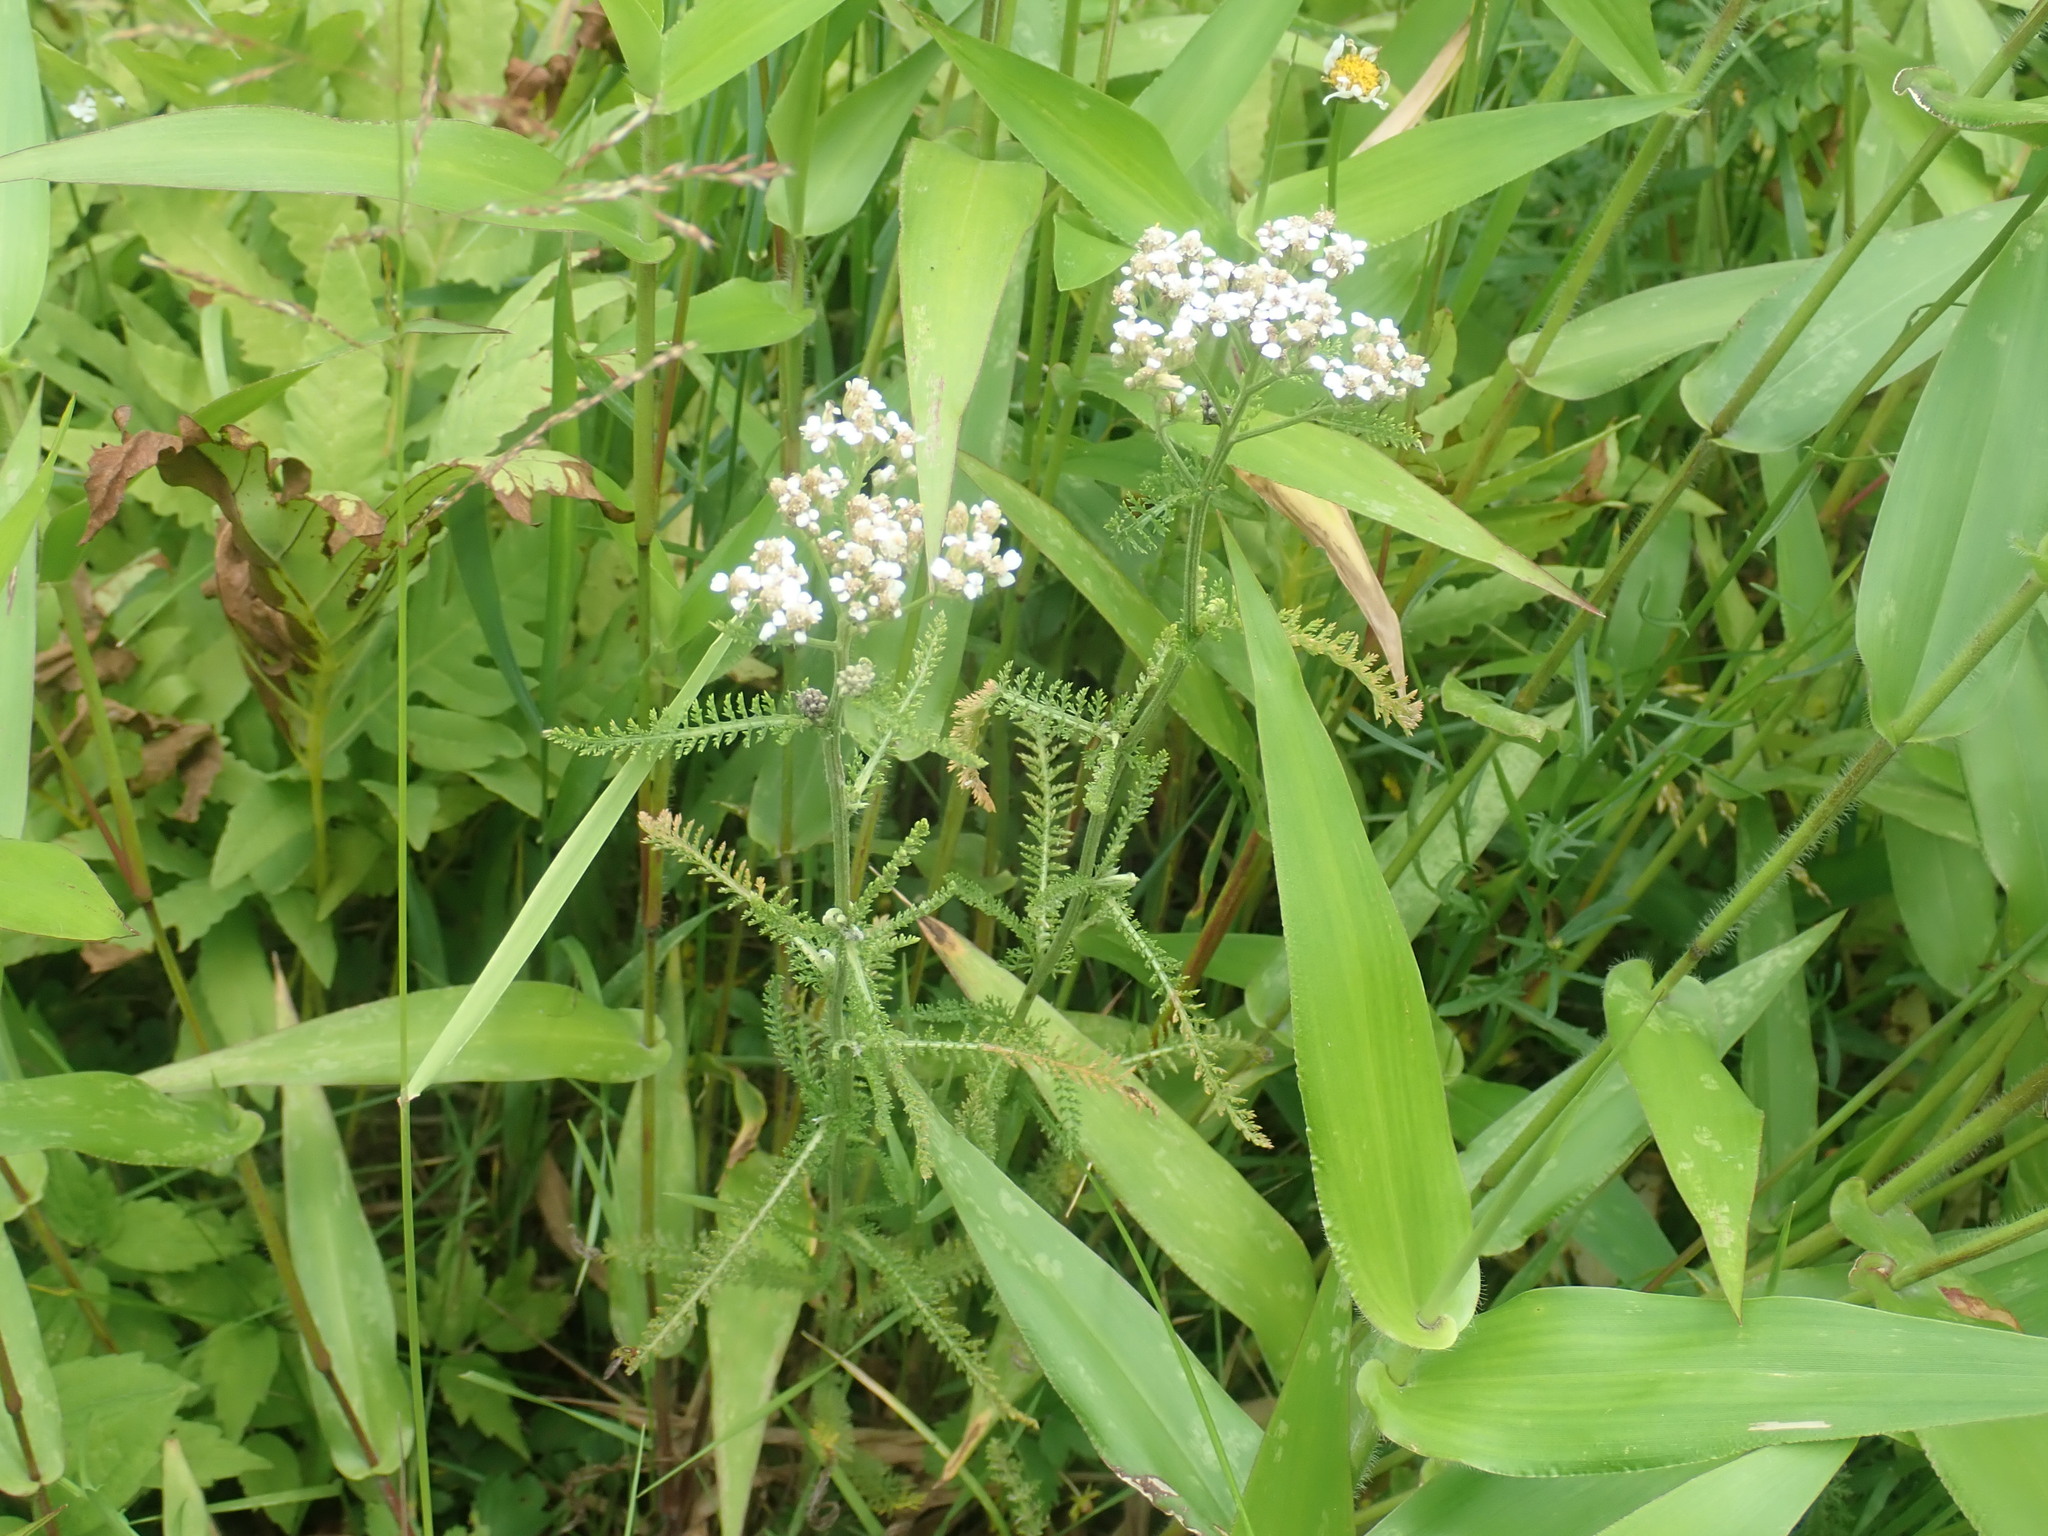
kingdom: Plantae
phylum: Tracheophyta
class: Magnoliopsida
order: Asterales
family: Asteraceae
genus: Achillea
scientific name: Achillea millefolium
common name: Yarrow
